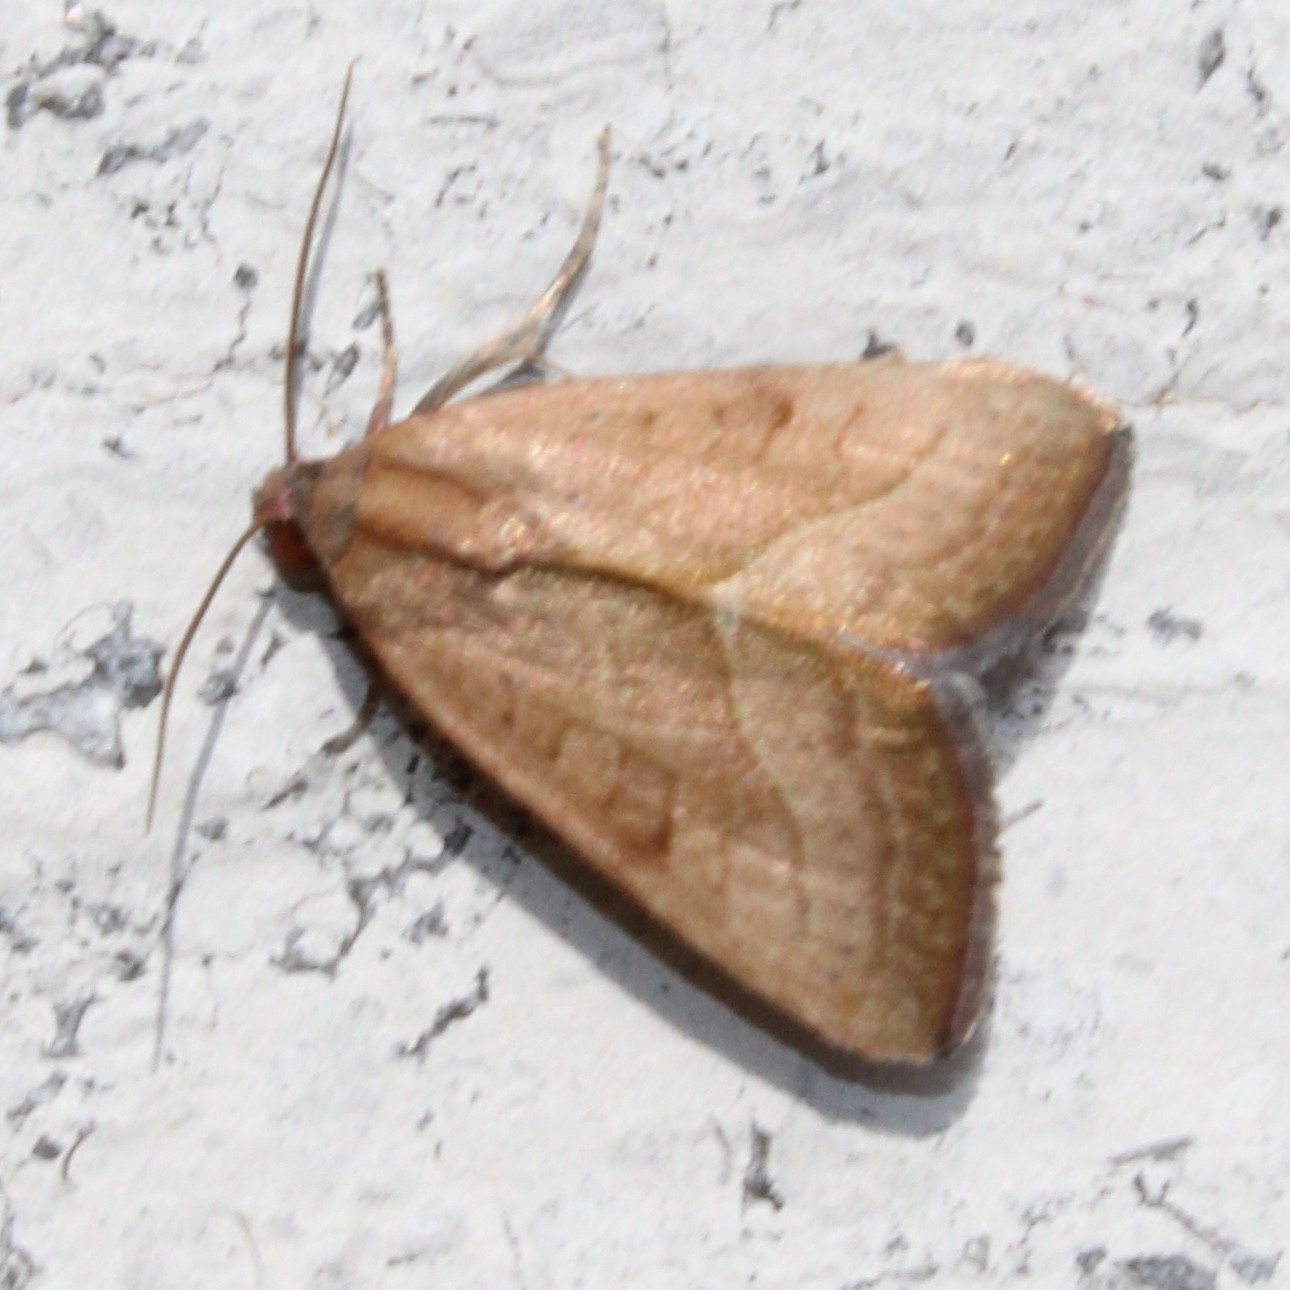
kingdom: Animalia
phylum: Arthropoda
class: Insecta
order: Lepidoptera
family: Noctuidae
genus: Galgula
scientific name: Galgula partita
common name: Wedgeling
